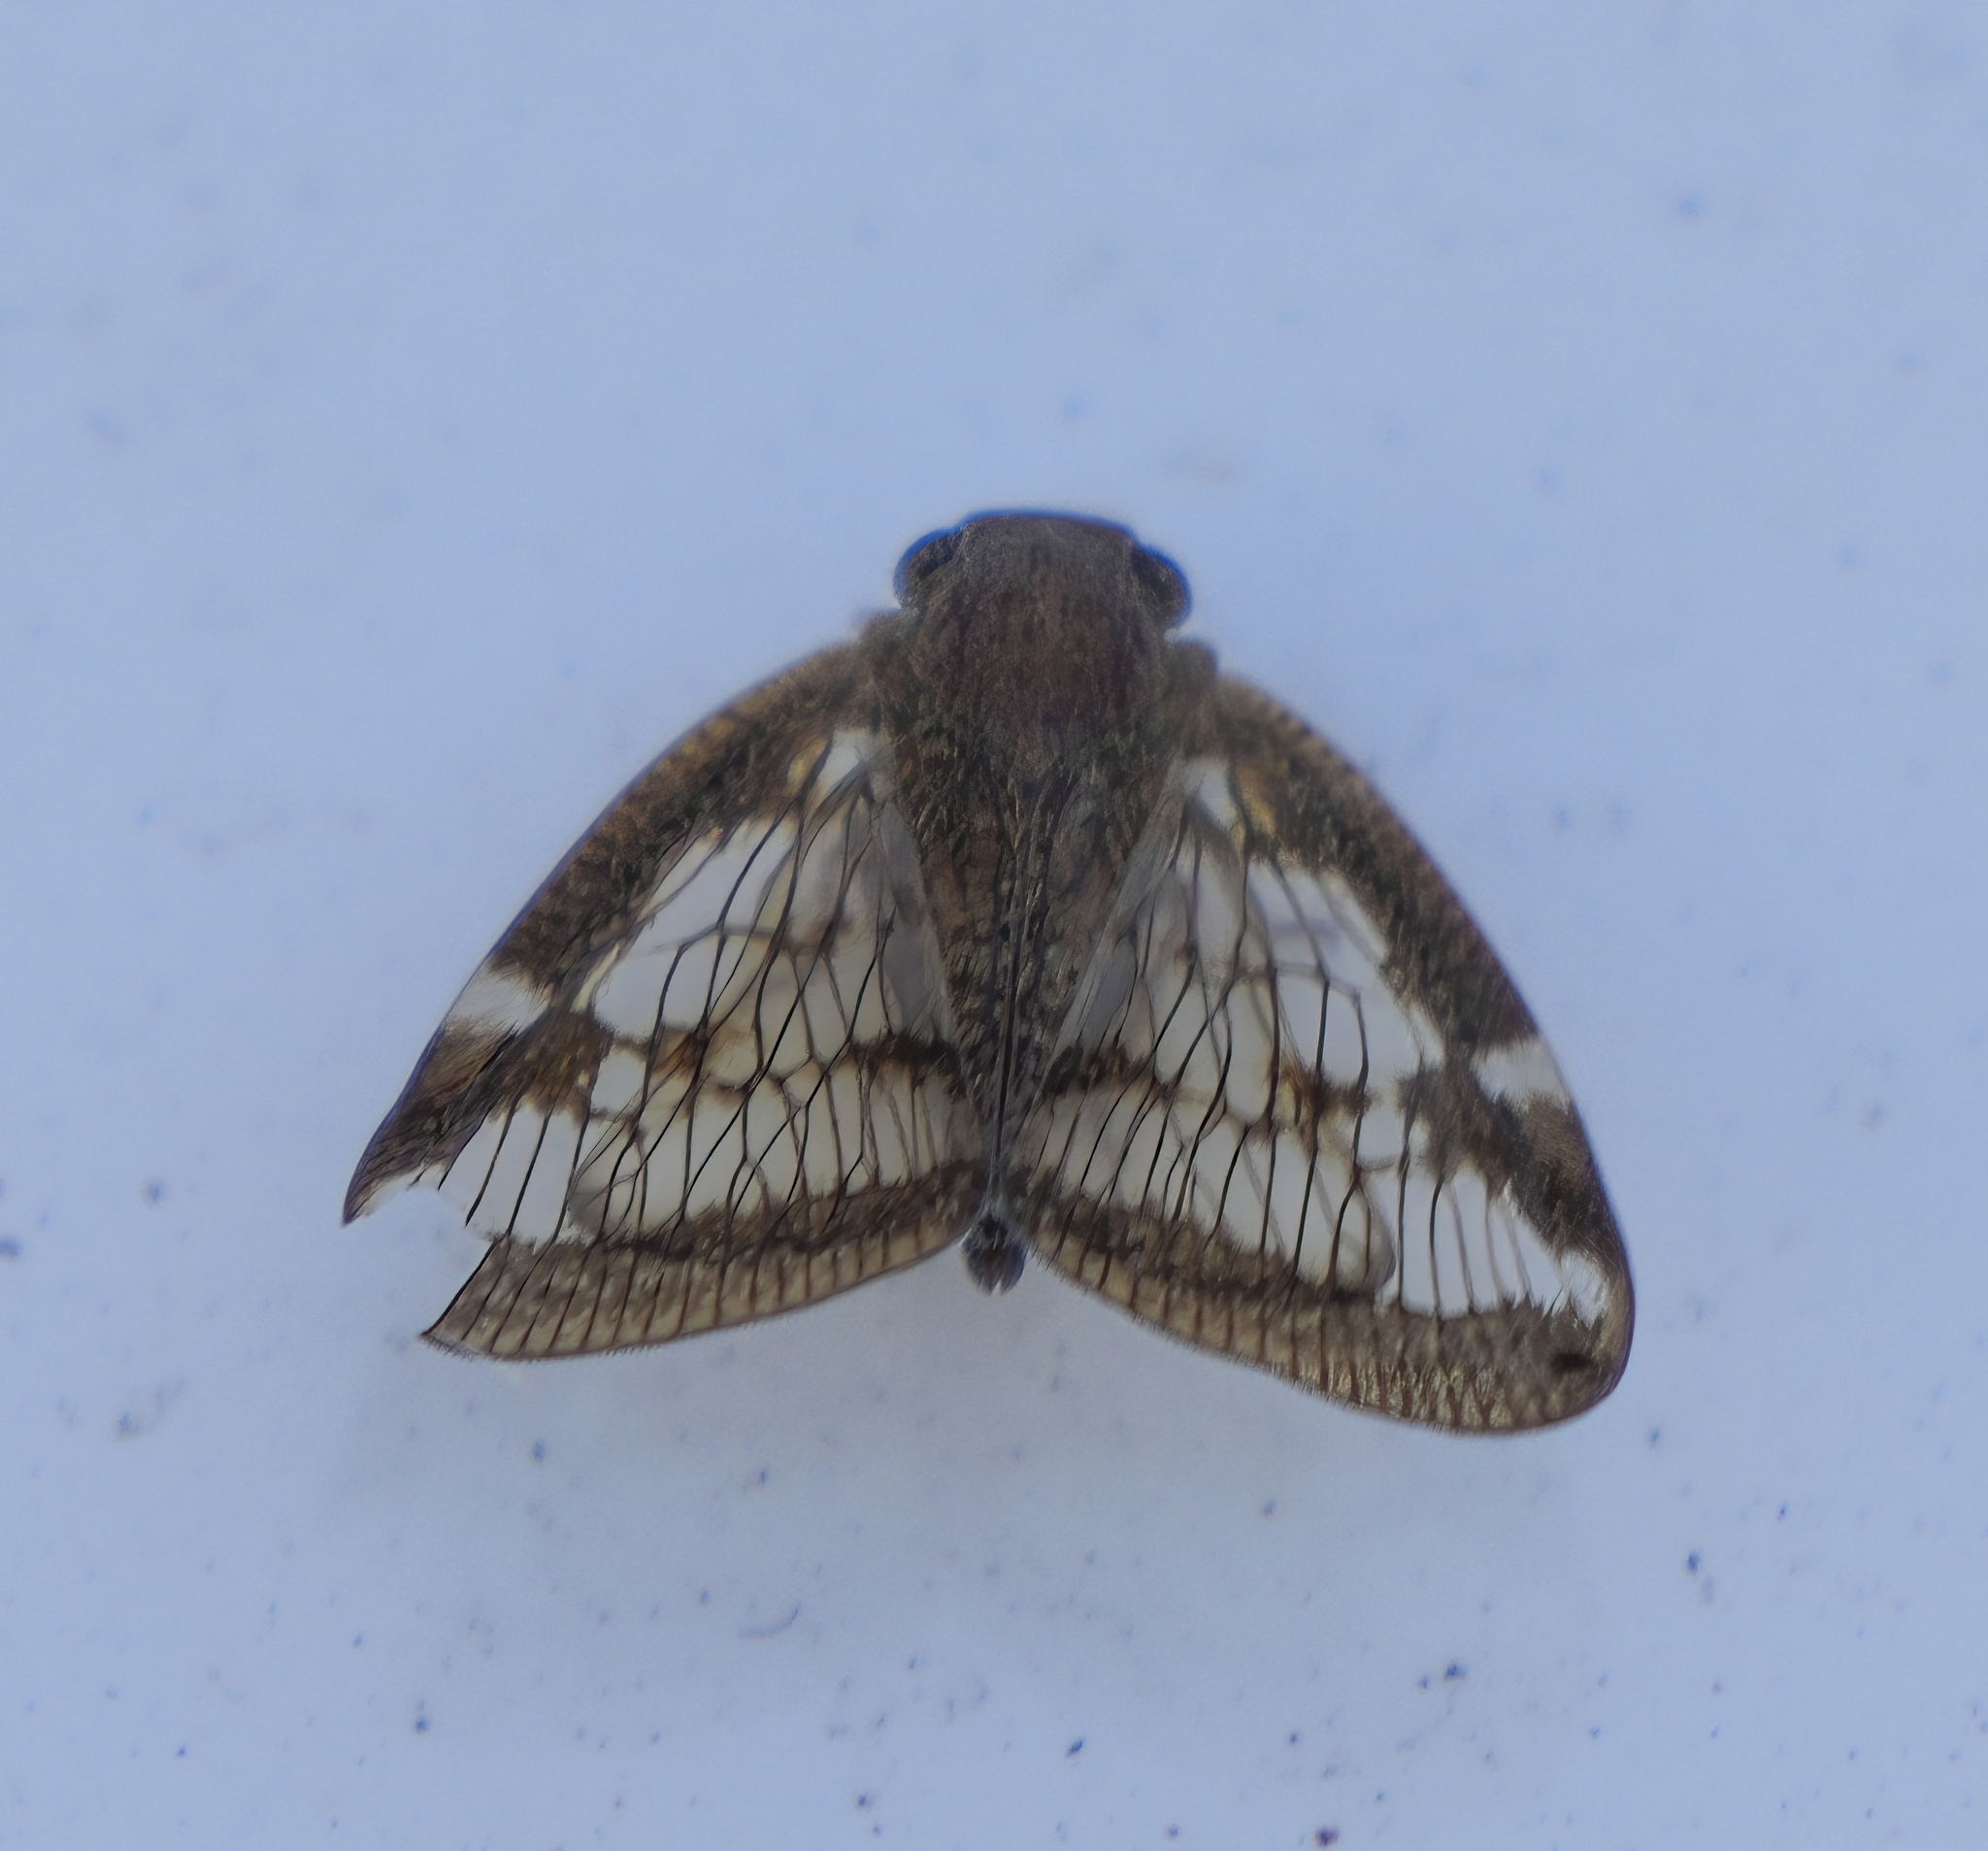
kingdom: Animalia
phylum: Arthropoda
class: Insecta
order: Hemiptera
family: Ricaniidae
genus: Scolypopa
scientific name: Scolypopa australis
